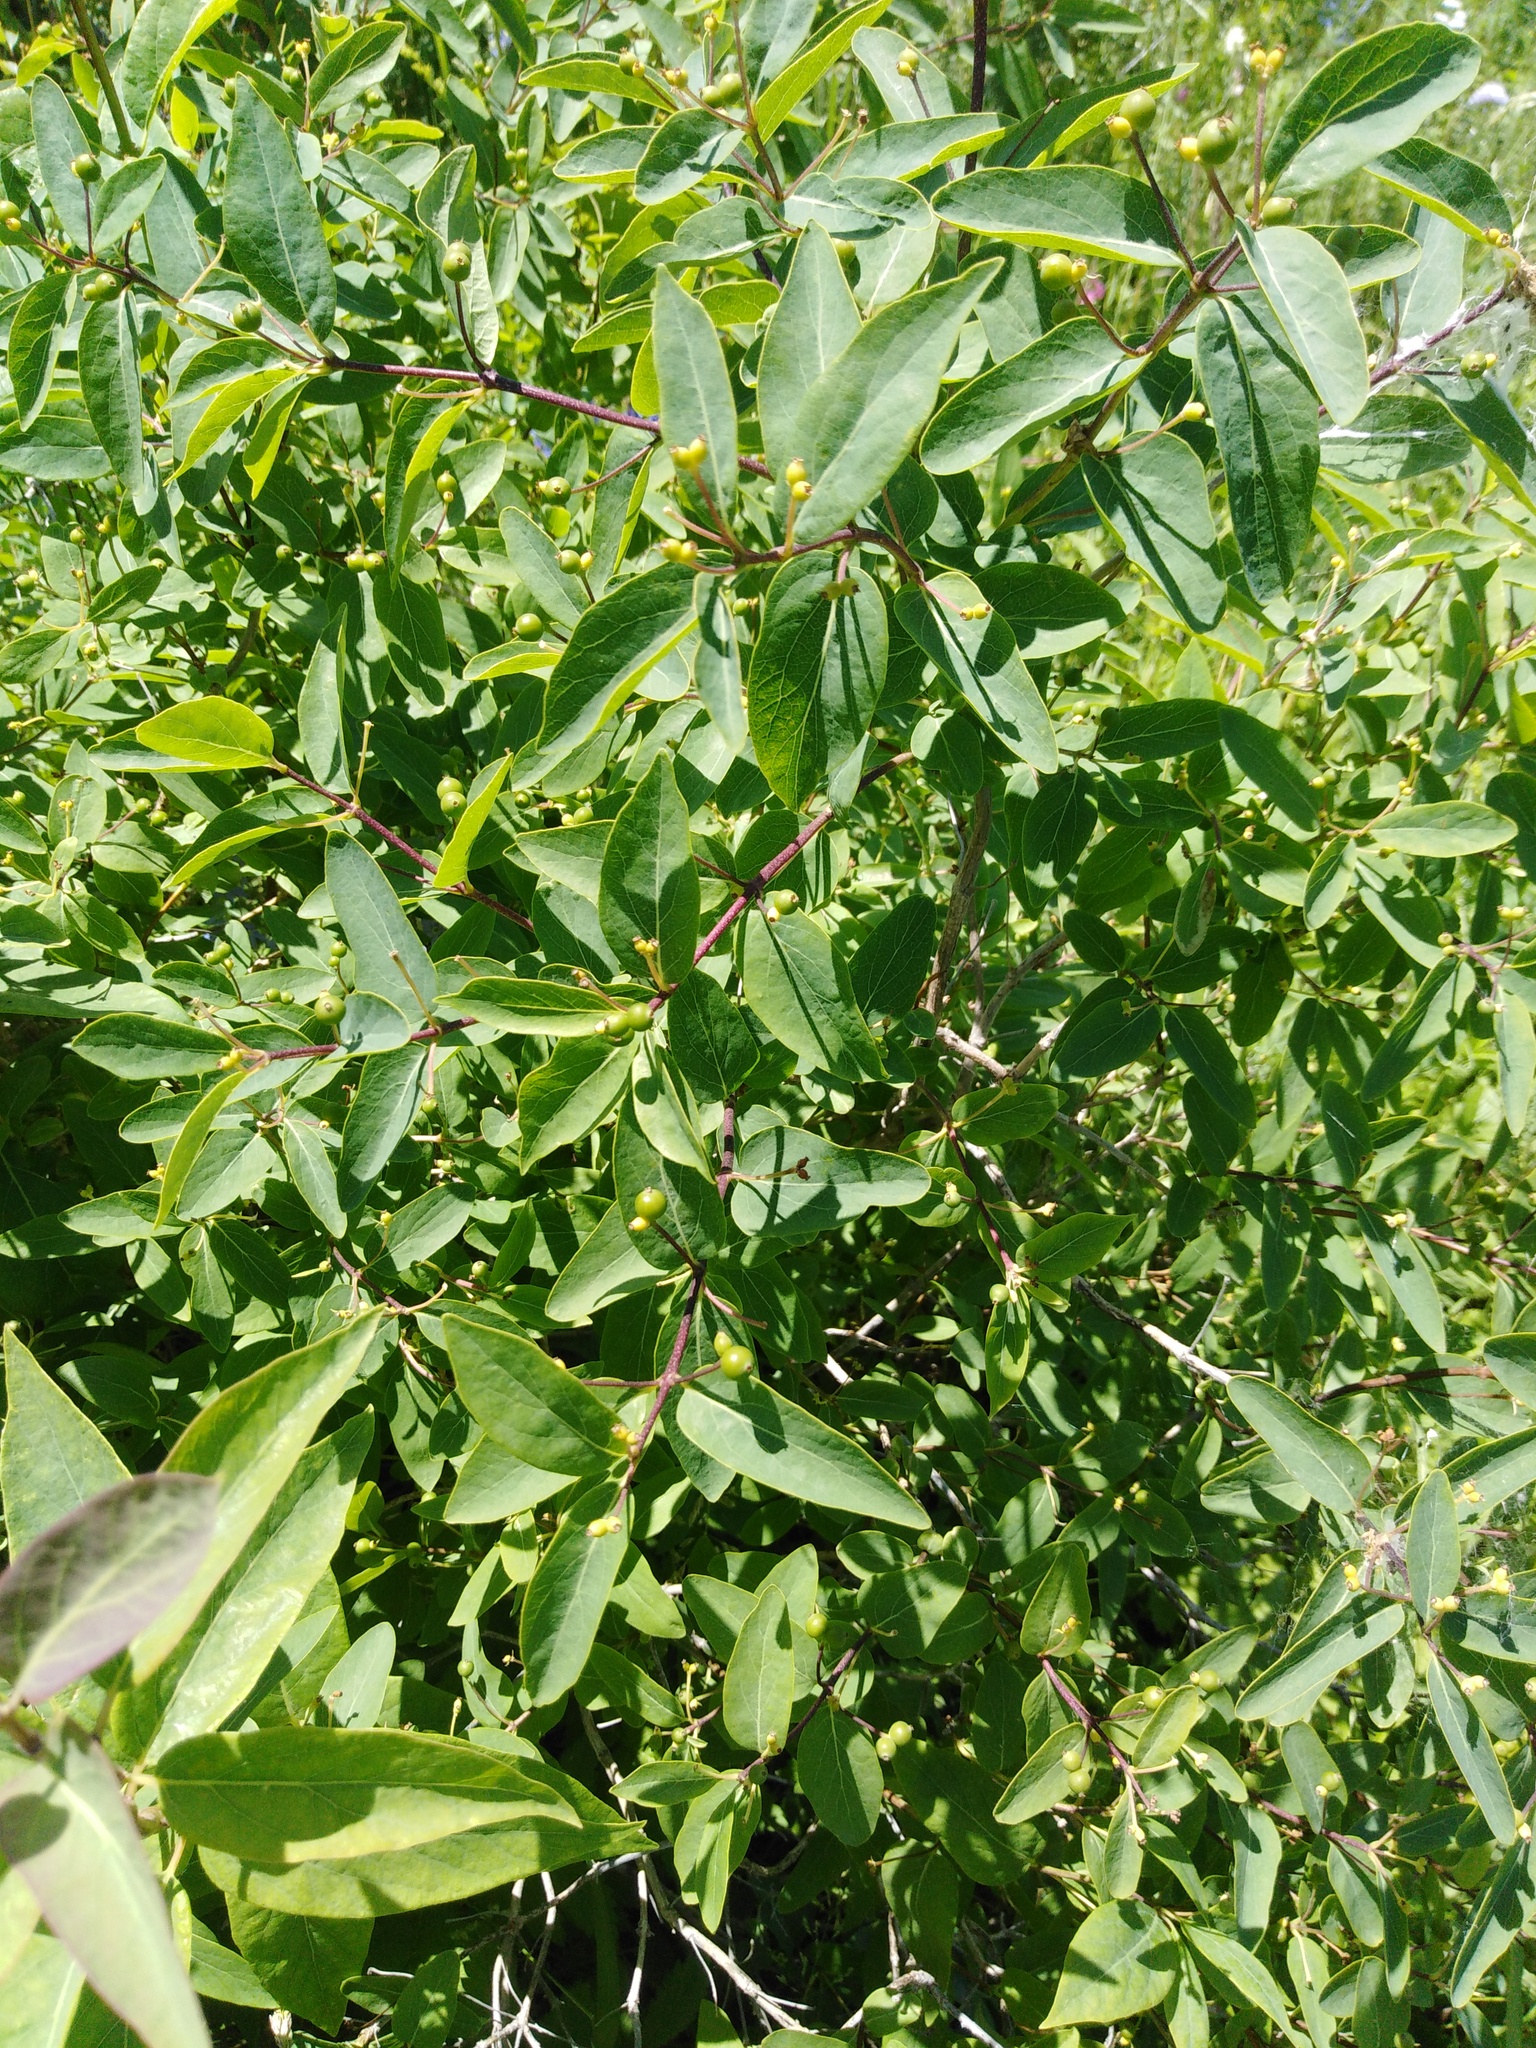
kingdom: Plantae
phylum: Tracheophyta
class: Magnoliopsida
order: Dipsacales
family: Caprifoliaceae
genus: Lonicera
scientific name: Lonicera tatarica
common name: Tatarian honeysuckle
